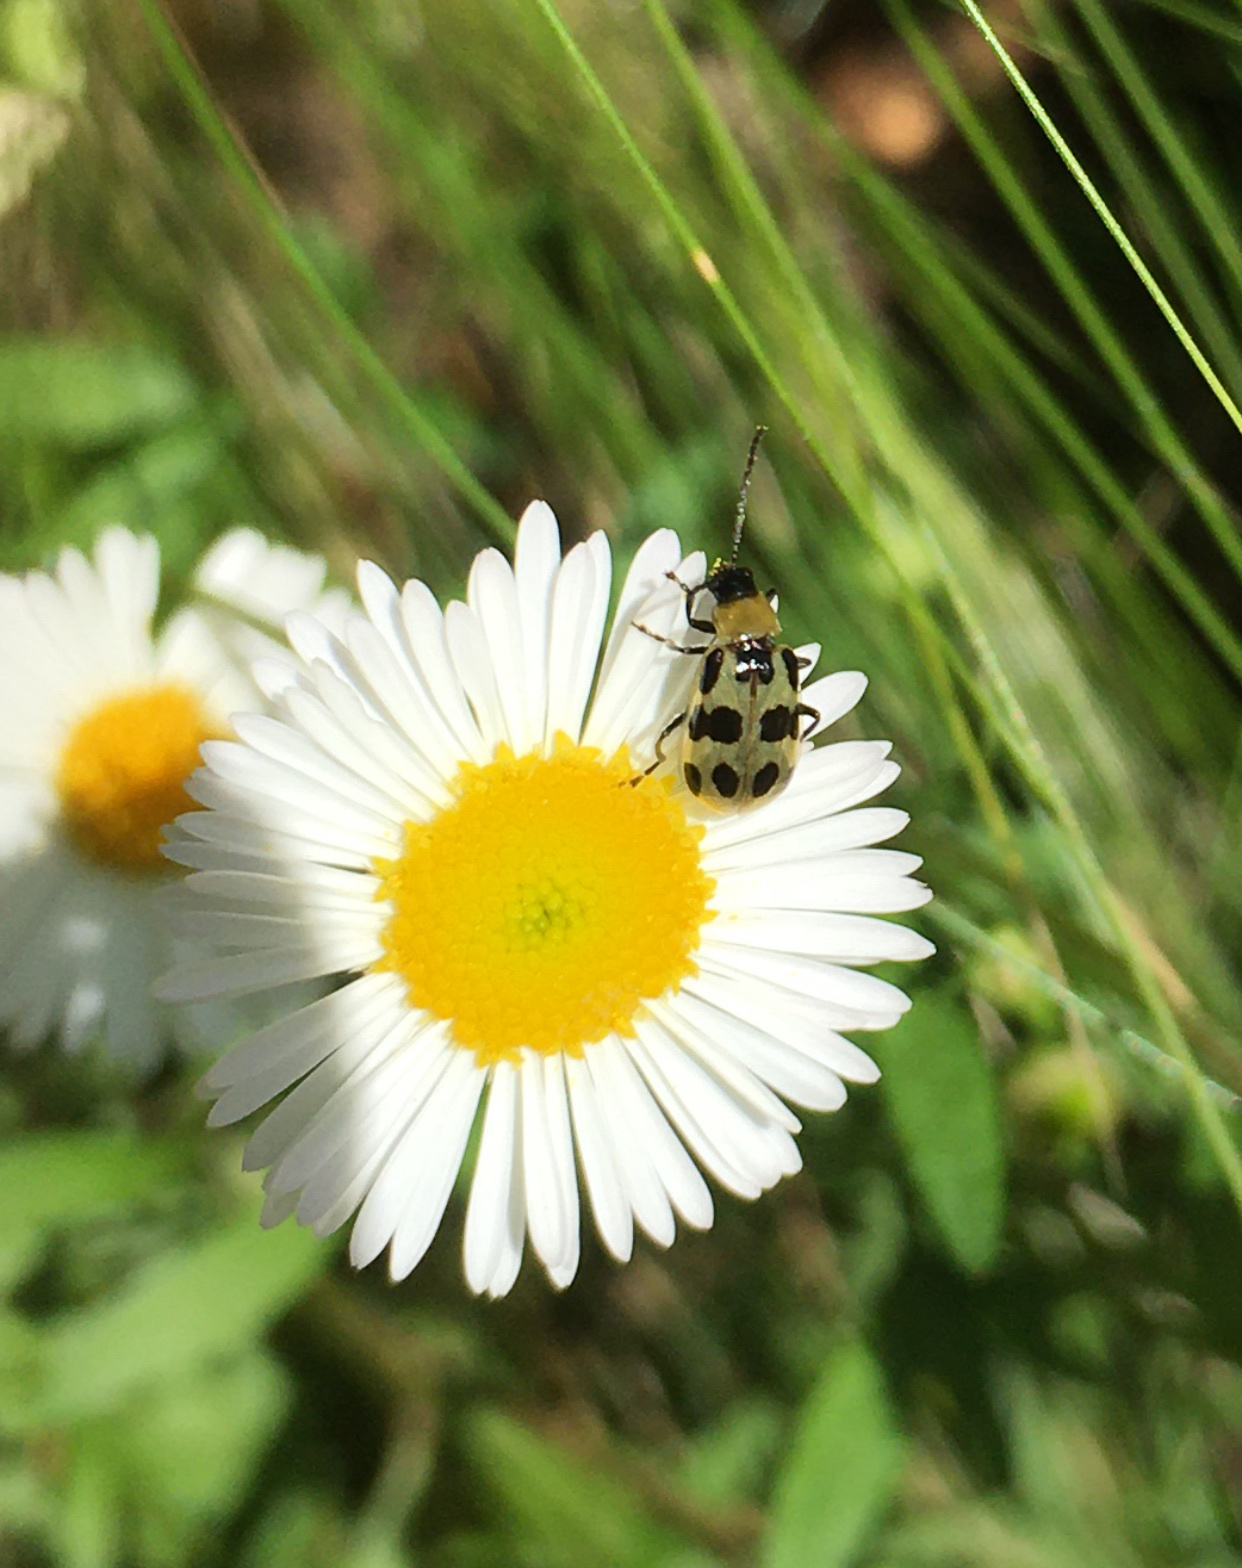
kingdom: Animalia
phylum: Arthropoda
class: Insecta
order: Coleoptera
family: Chrysomelidae
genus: Diabrotica
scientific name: Diabrotica undecimpunctata
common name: Spotted cucumber beetle
